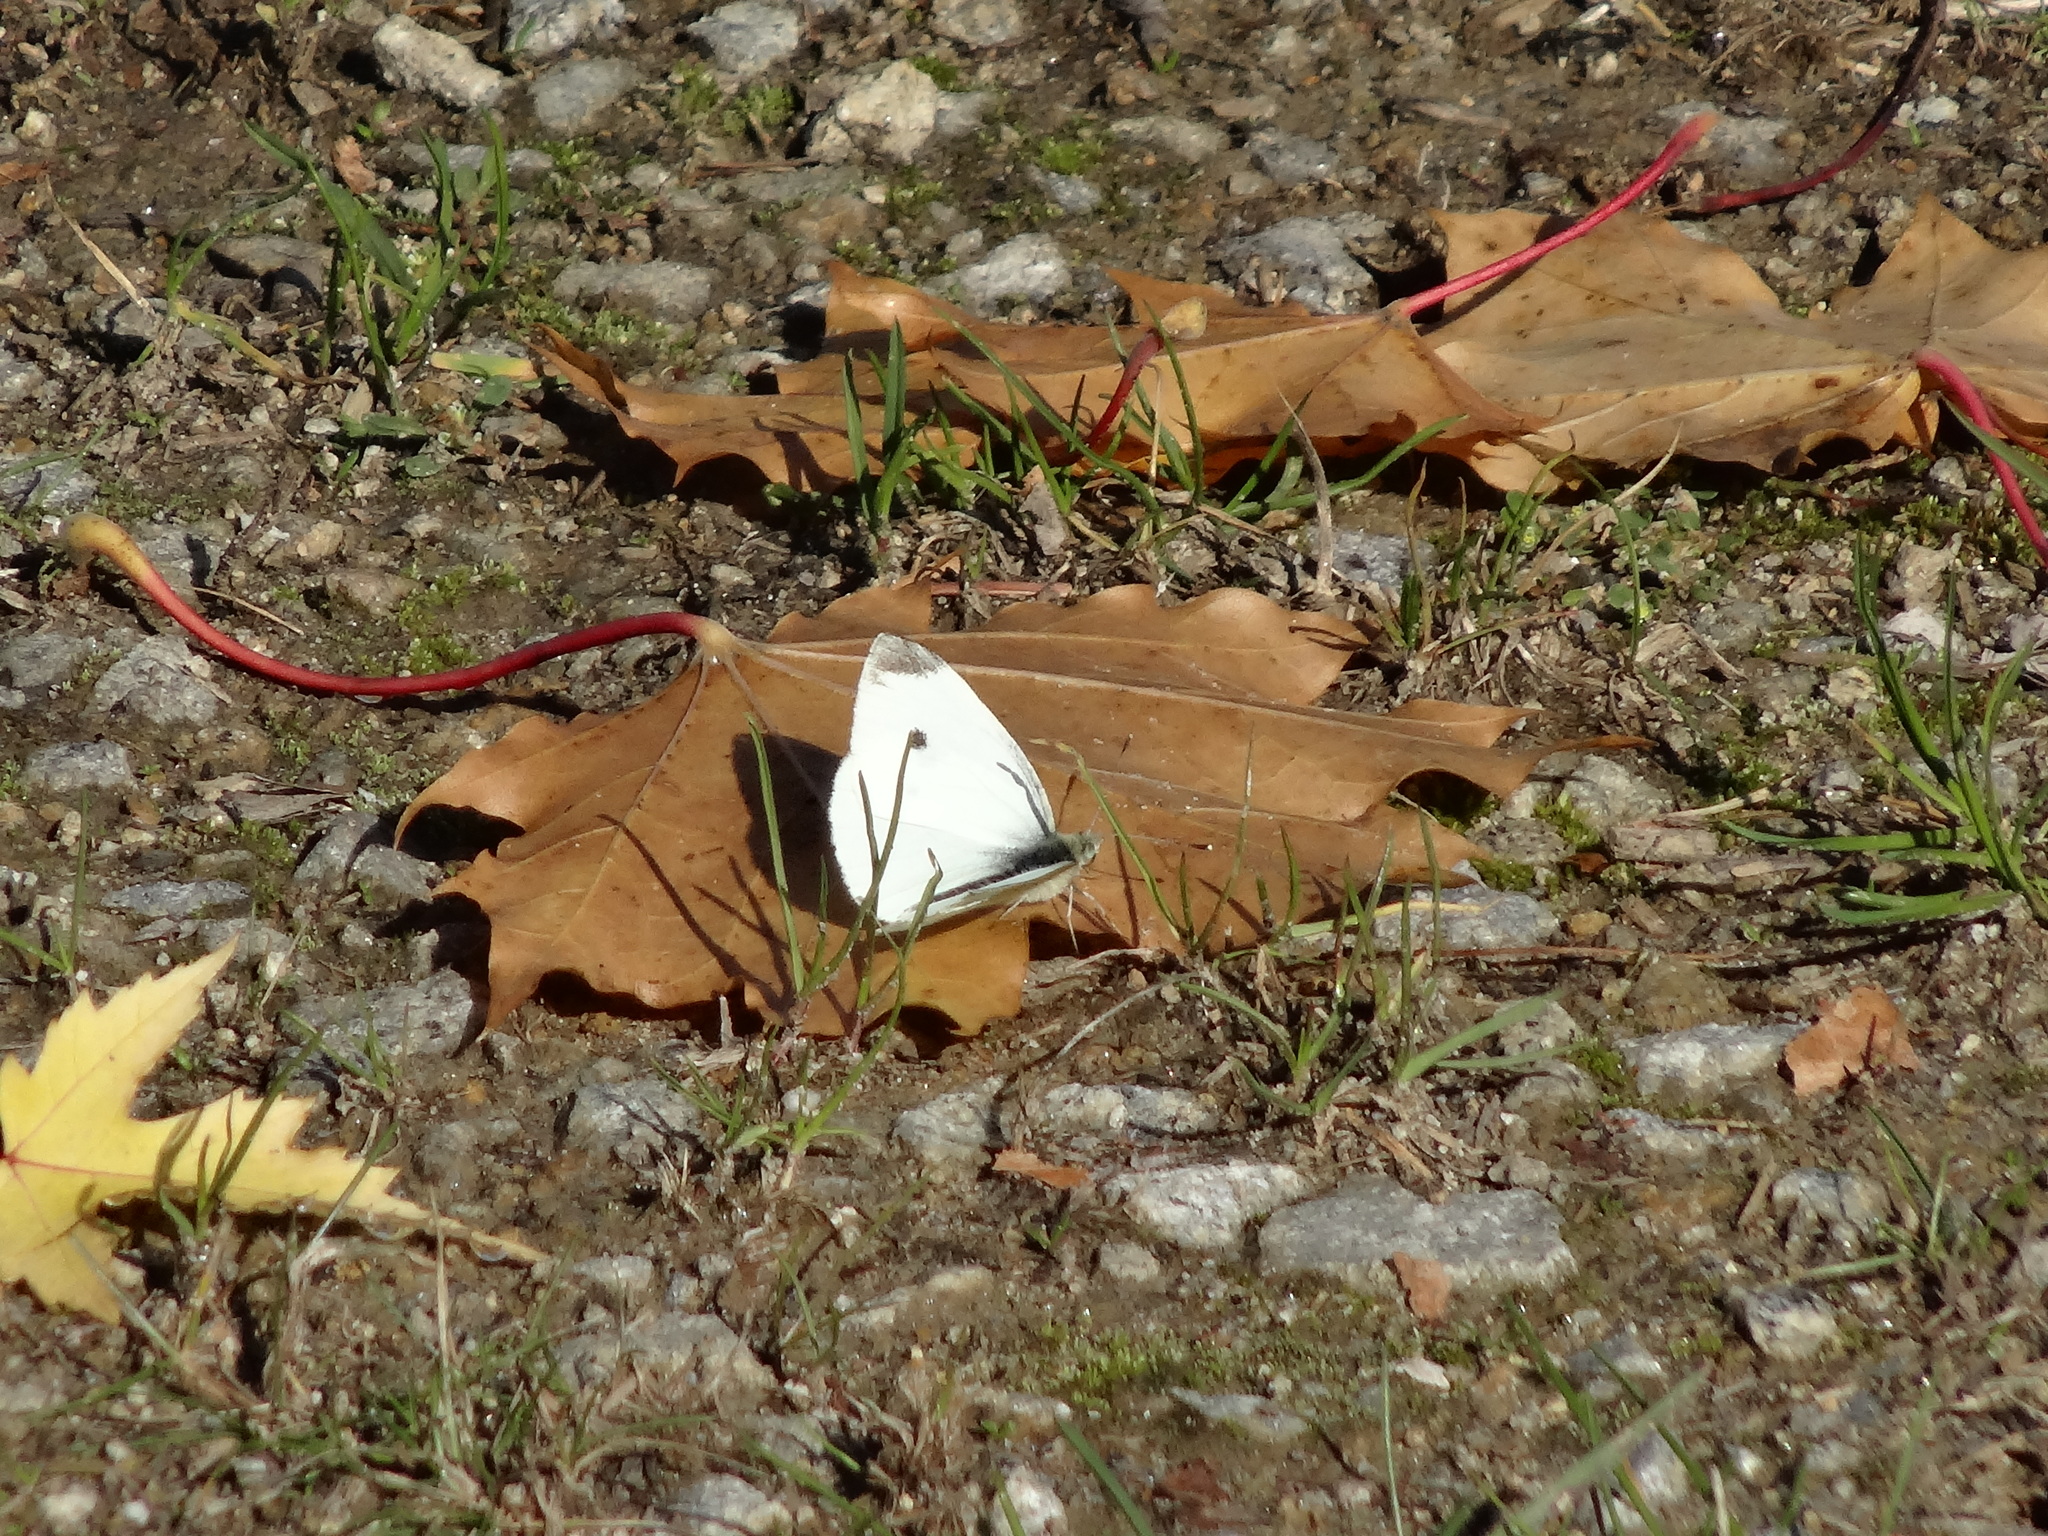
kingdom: Animalia
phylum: Arthropoda
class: Insecta
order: Lepidoptera
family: Pieridae
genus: Pieris
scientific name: Pieris rapae
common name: Small white
